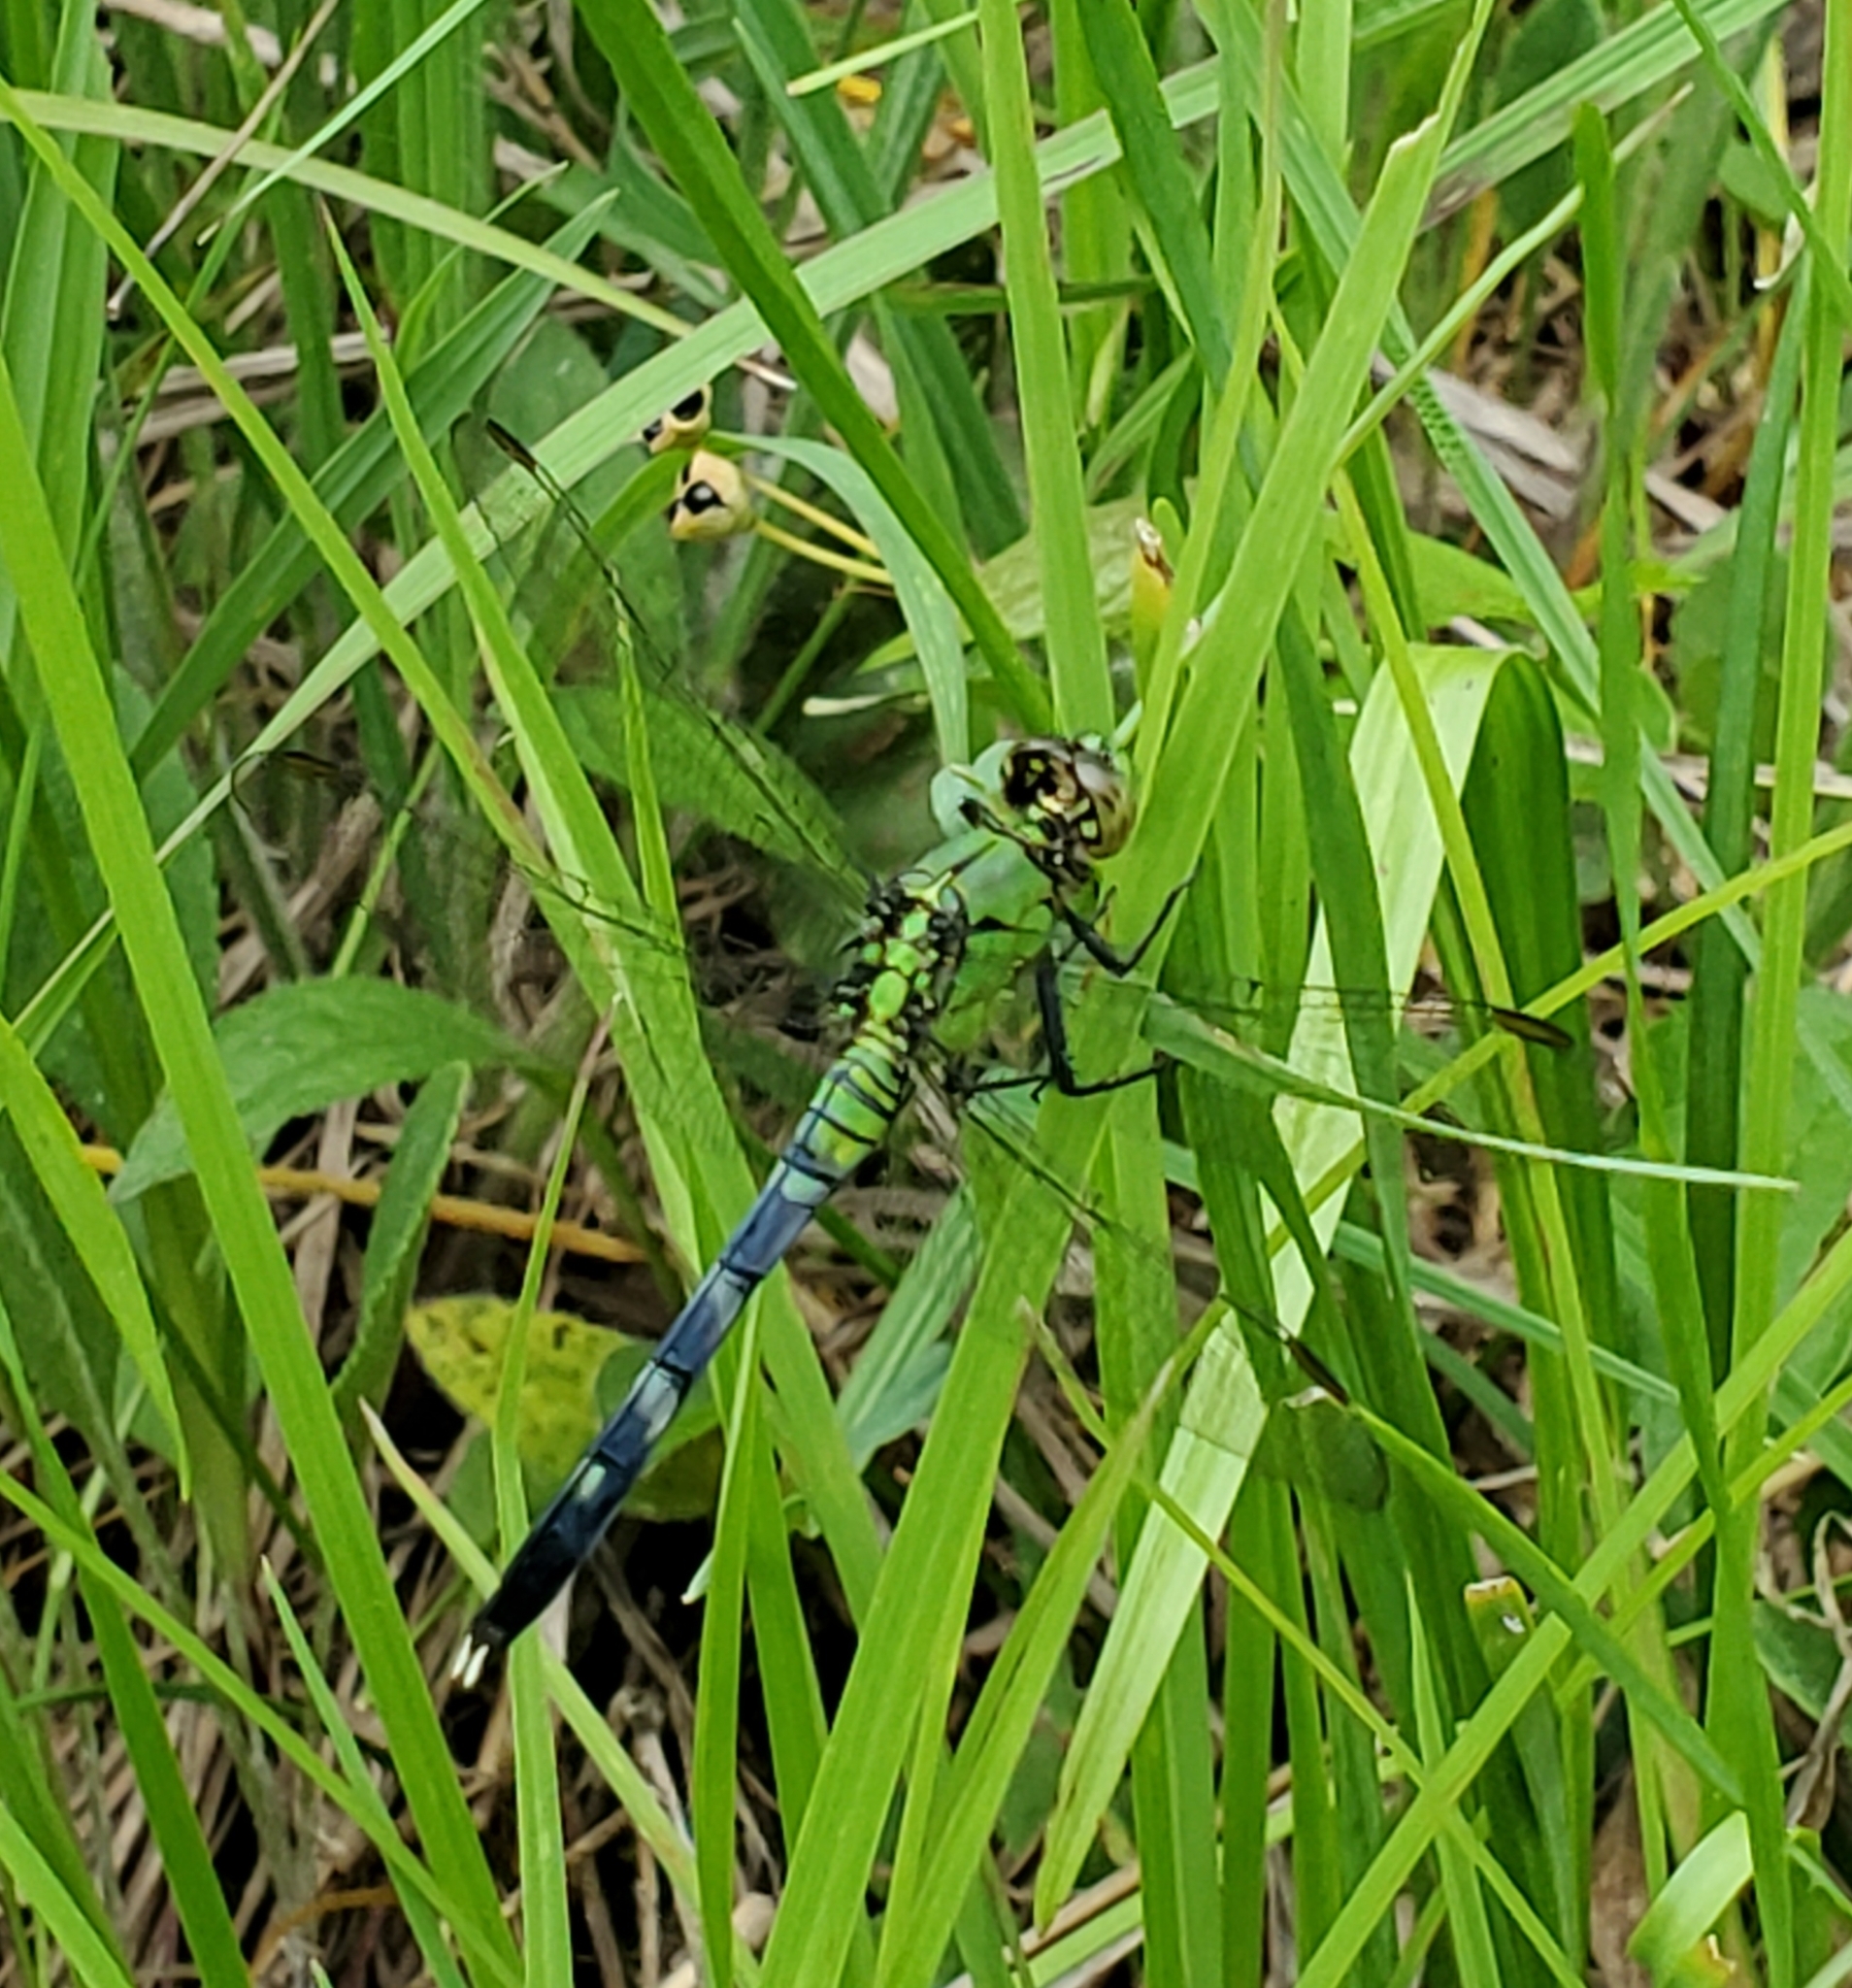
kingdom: Animalia
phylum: Arthropoda
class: Insecta
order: Odonata
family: Libellulidae
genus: Erythemis
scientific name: Erythemis simplicicollis
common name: Eastern pondhawk
